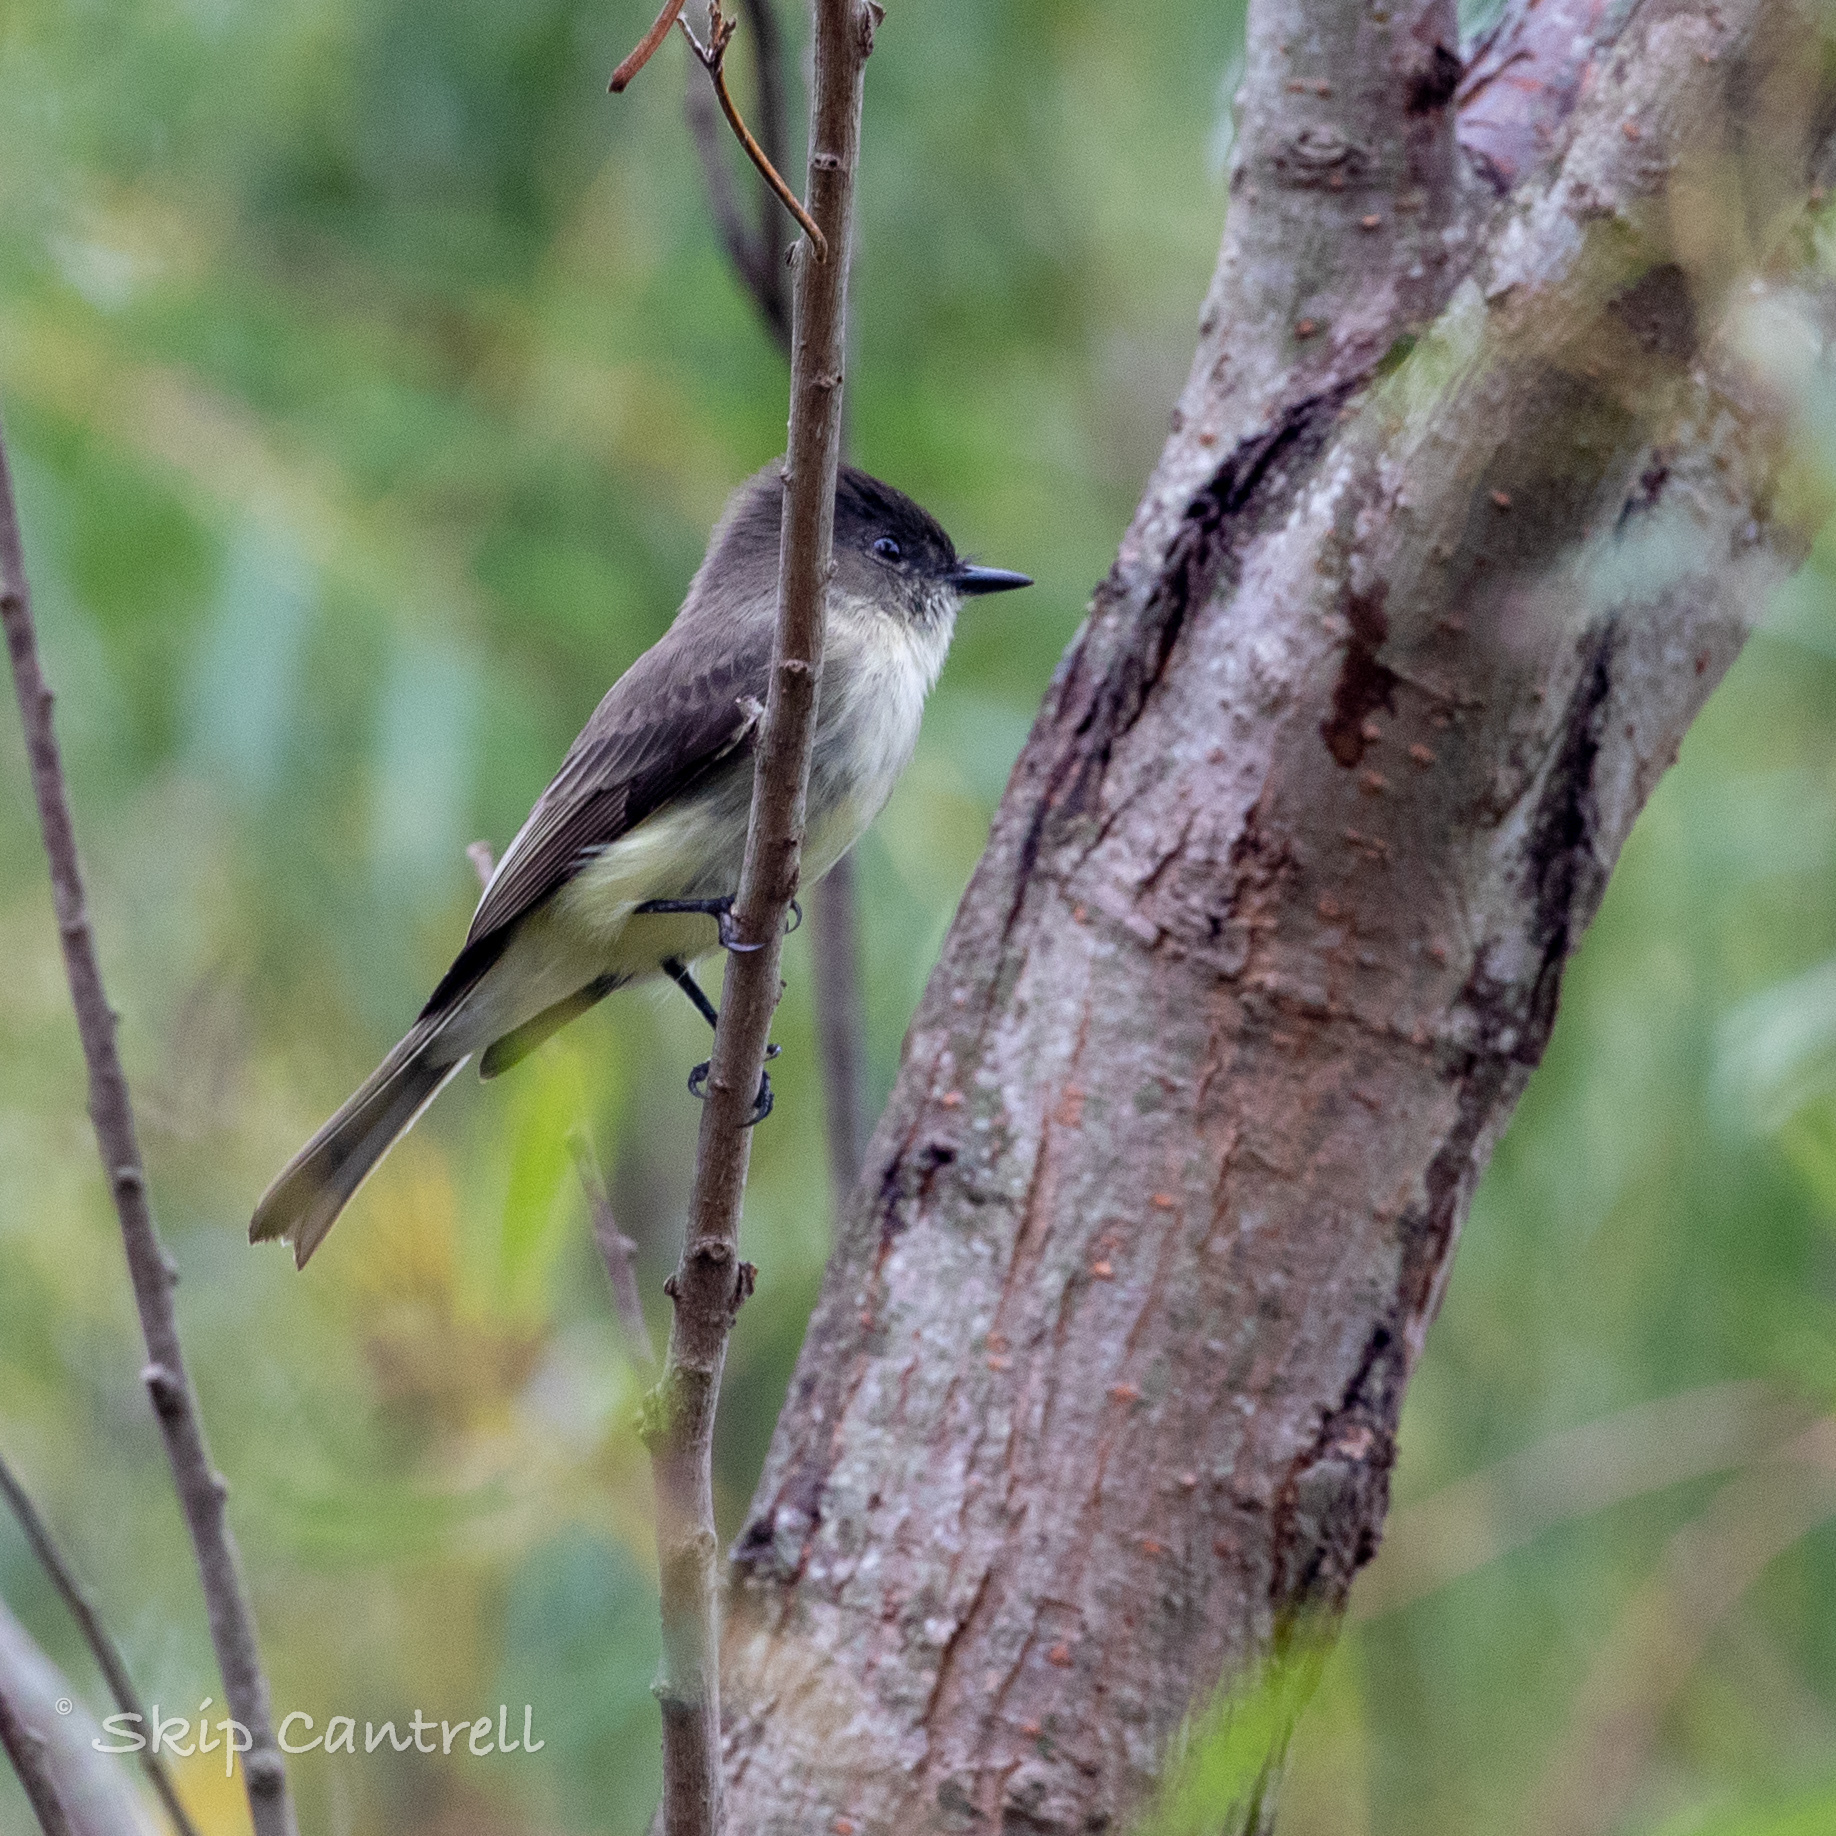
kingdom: Animalia
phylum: Chordata
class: Aves
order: Passeriformes
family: Tyrannidae
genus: Sayornis
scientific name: Sayornis phoebe
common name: Eastern phoebe
